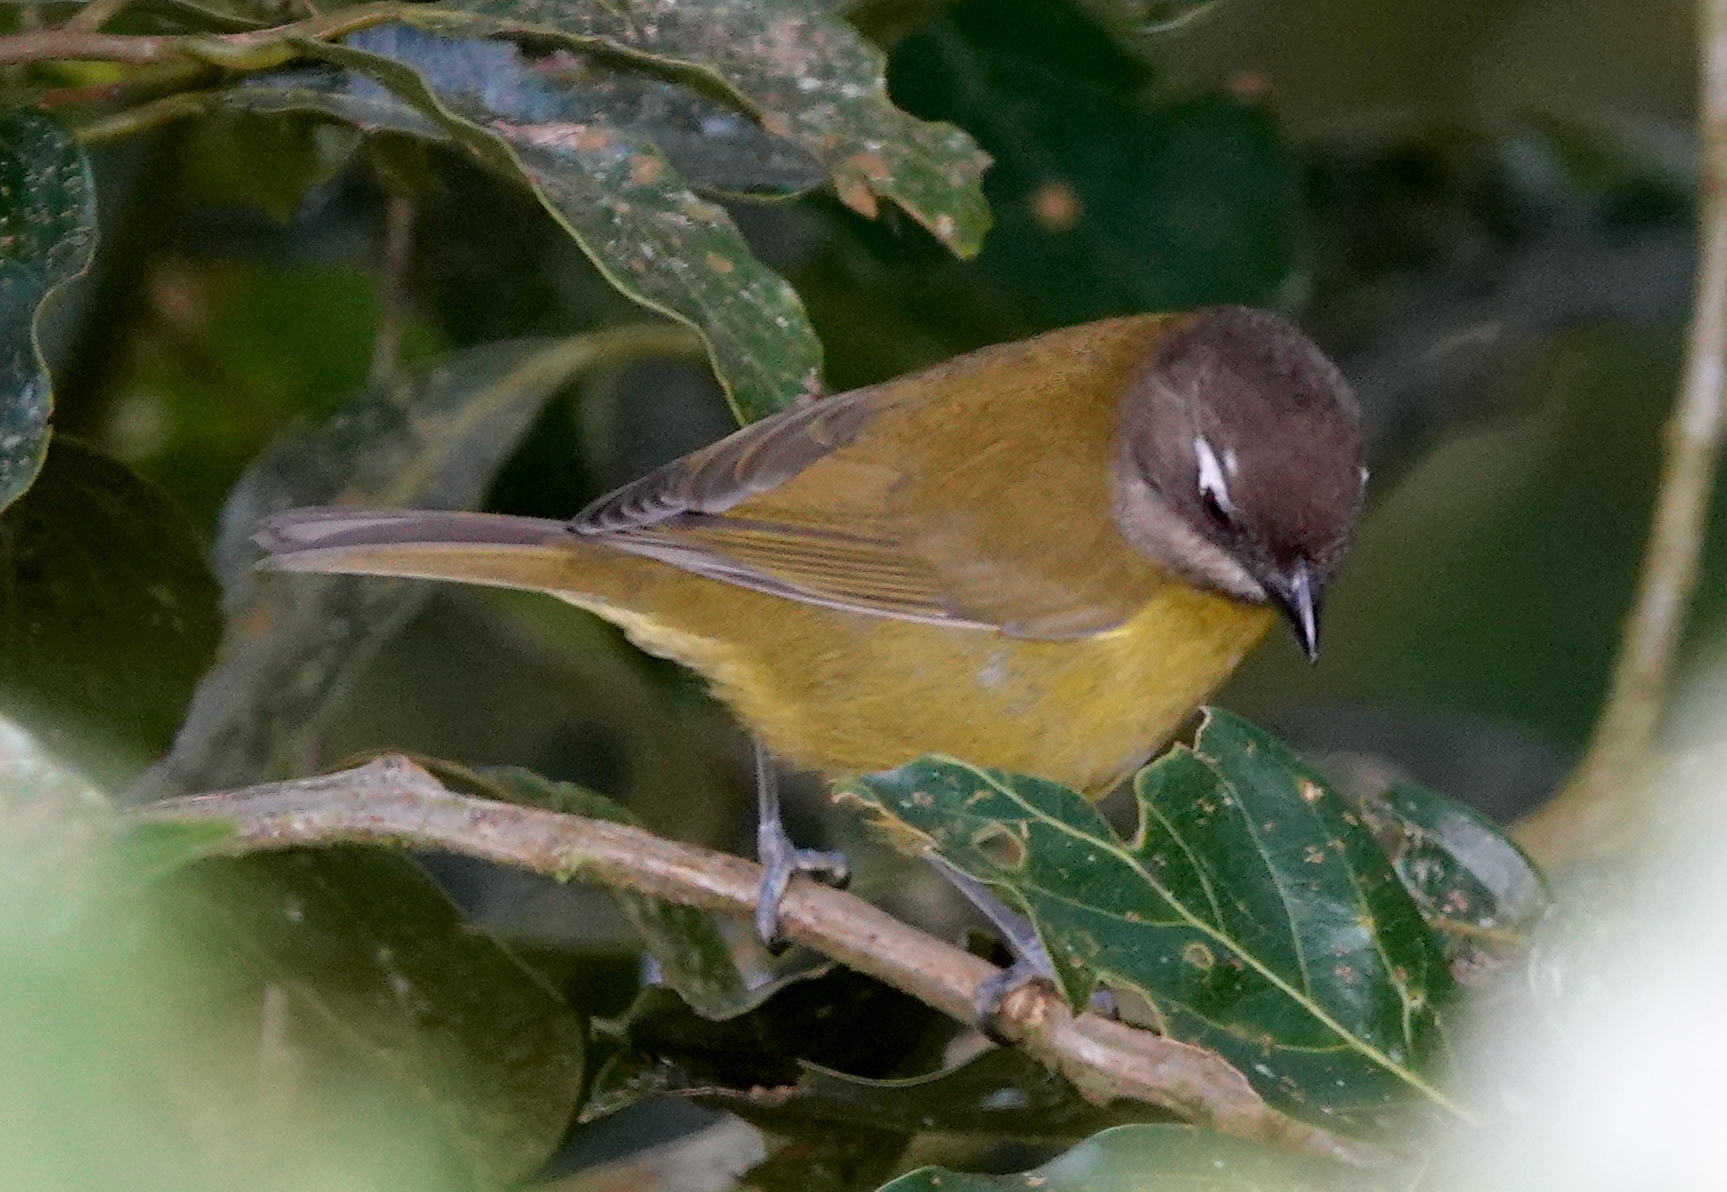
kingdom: Animalia
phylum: Chordata
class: Aves
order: Passeriformes
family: Passerellidae
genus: Chlorospingus
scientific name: Chlorospingus flavopectus
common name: Common chlorospingus
